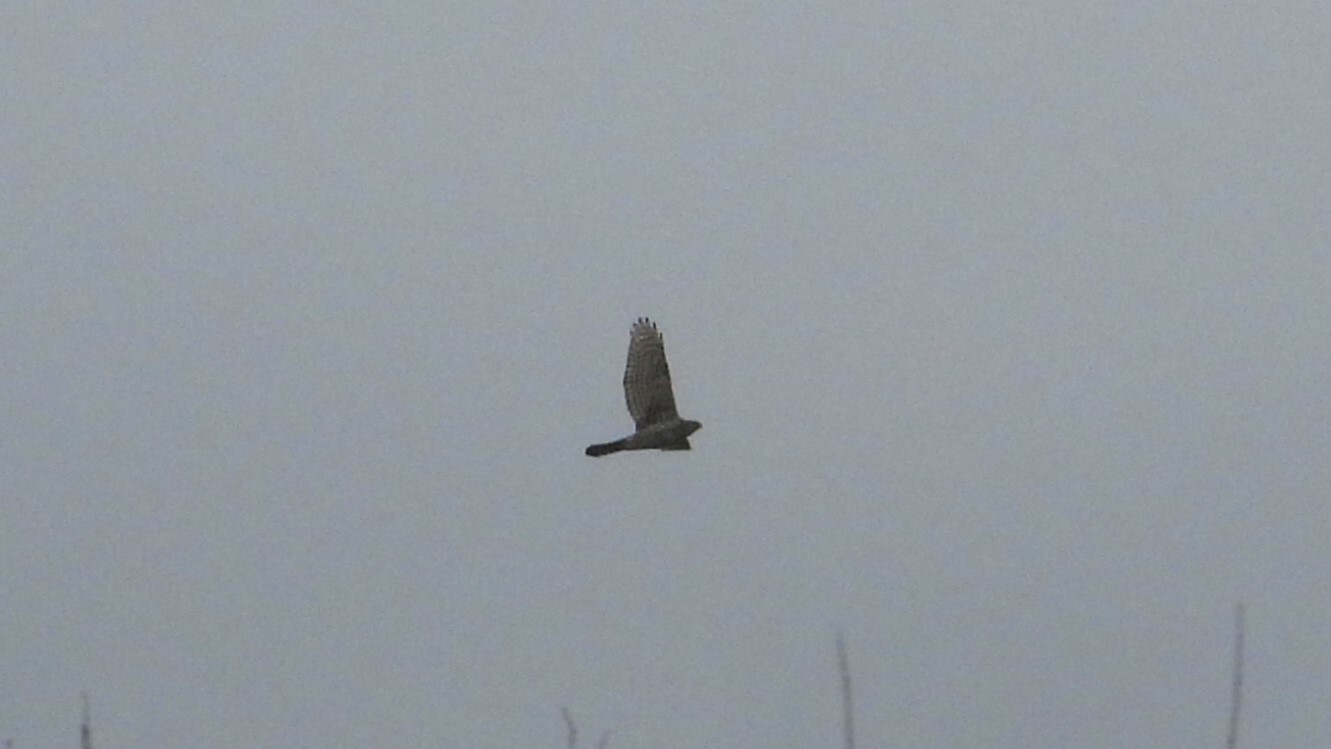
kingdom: Animalia
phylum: Chordata
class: Aves
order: Accipitriformes
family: Accipitridae
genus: Accipiter
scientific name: Accipiter gentilis
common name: Northern goshawk
